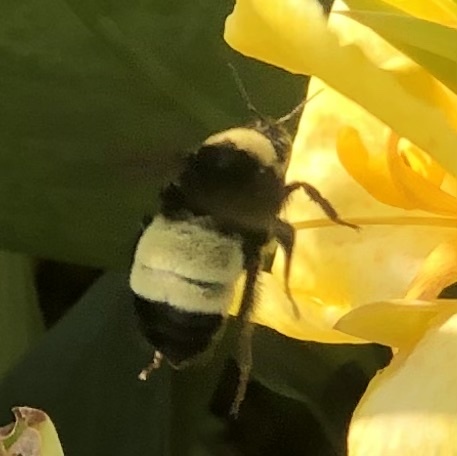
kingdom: Animalia
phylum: Arthropoda
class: Insecta
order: Hymenoptera
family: Apidae
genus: Bombus
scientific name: Bombus pensylvanicus
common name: Bumble bee
